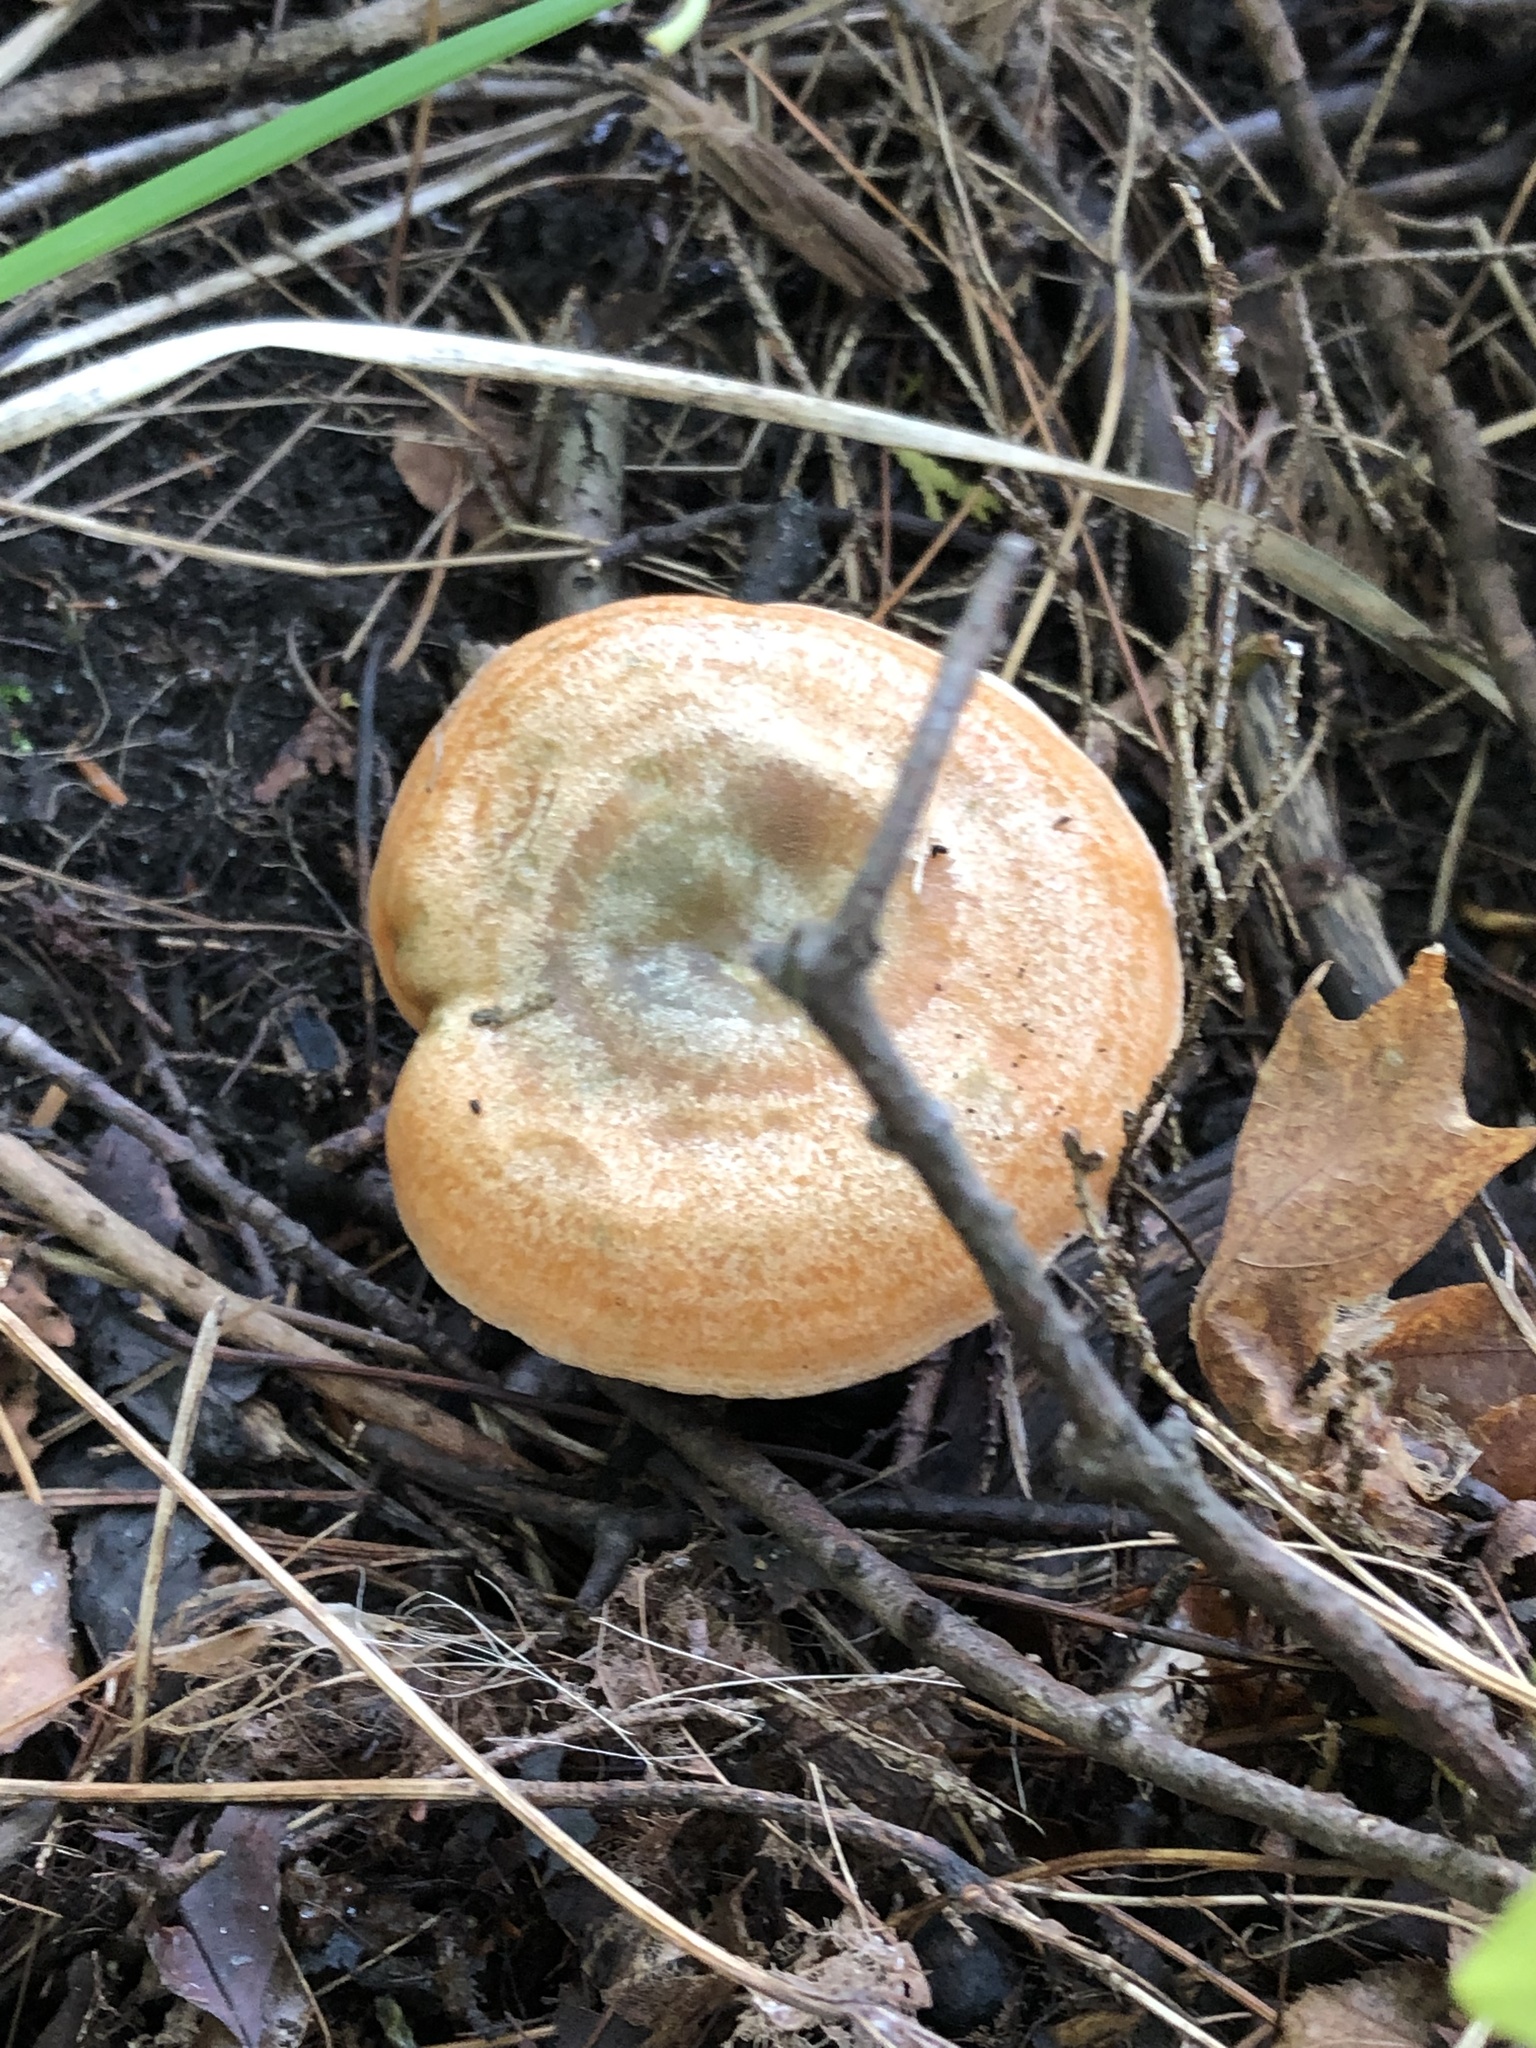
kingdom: Fungi
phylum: Basidiomycota
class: Agaricomycetes
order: Russulales
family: Russulaceae
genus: Lactarius
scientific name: Lactarius deterrimus
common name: False saffron milkcap
